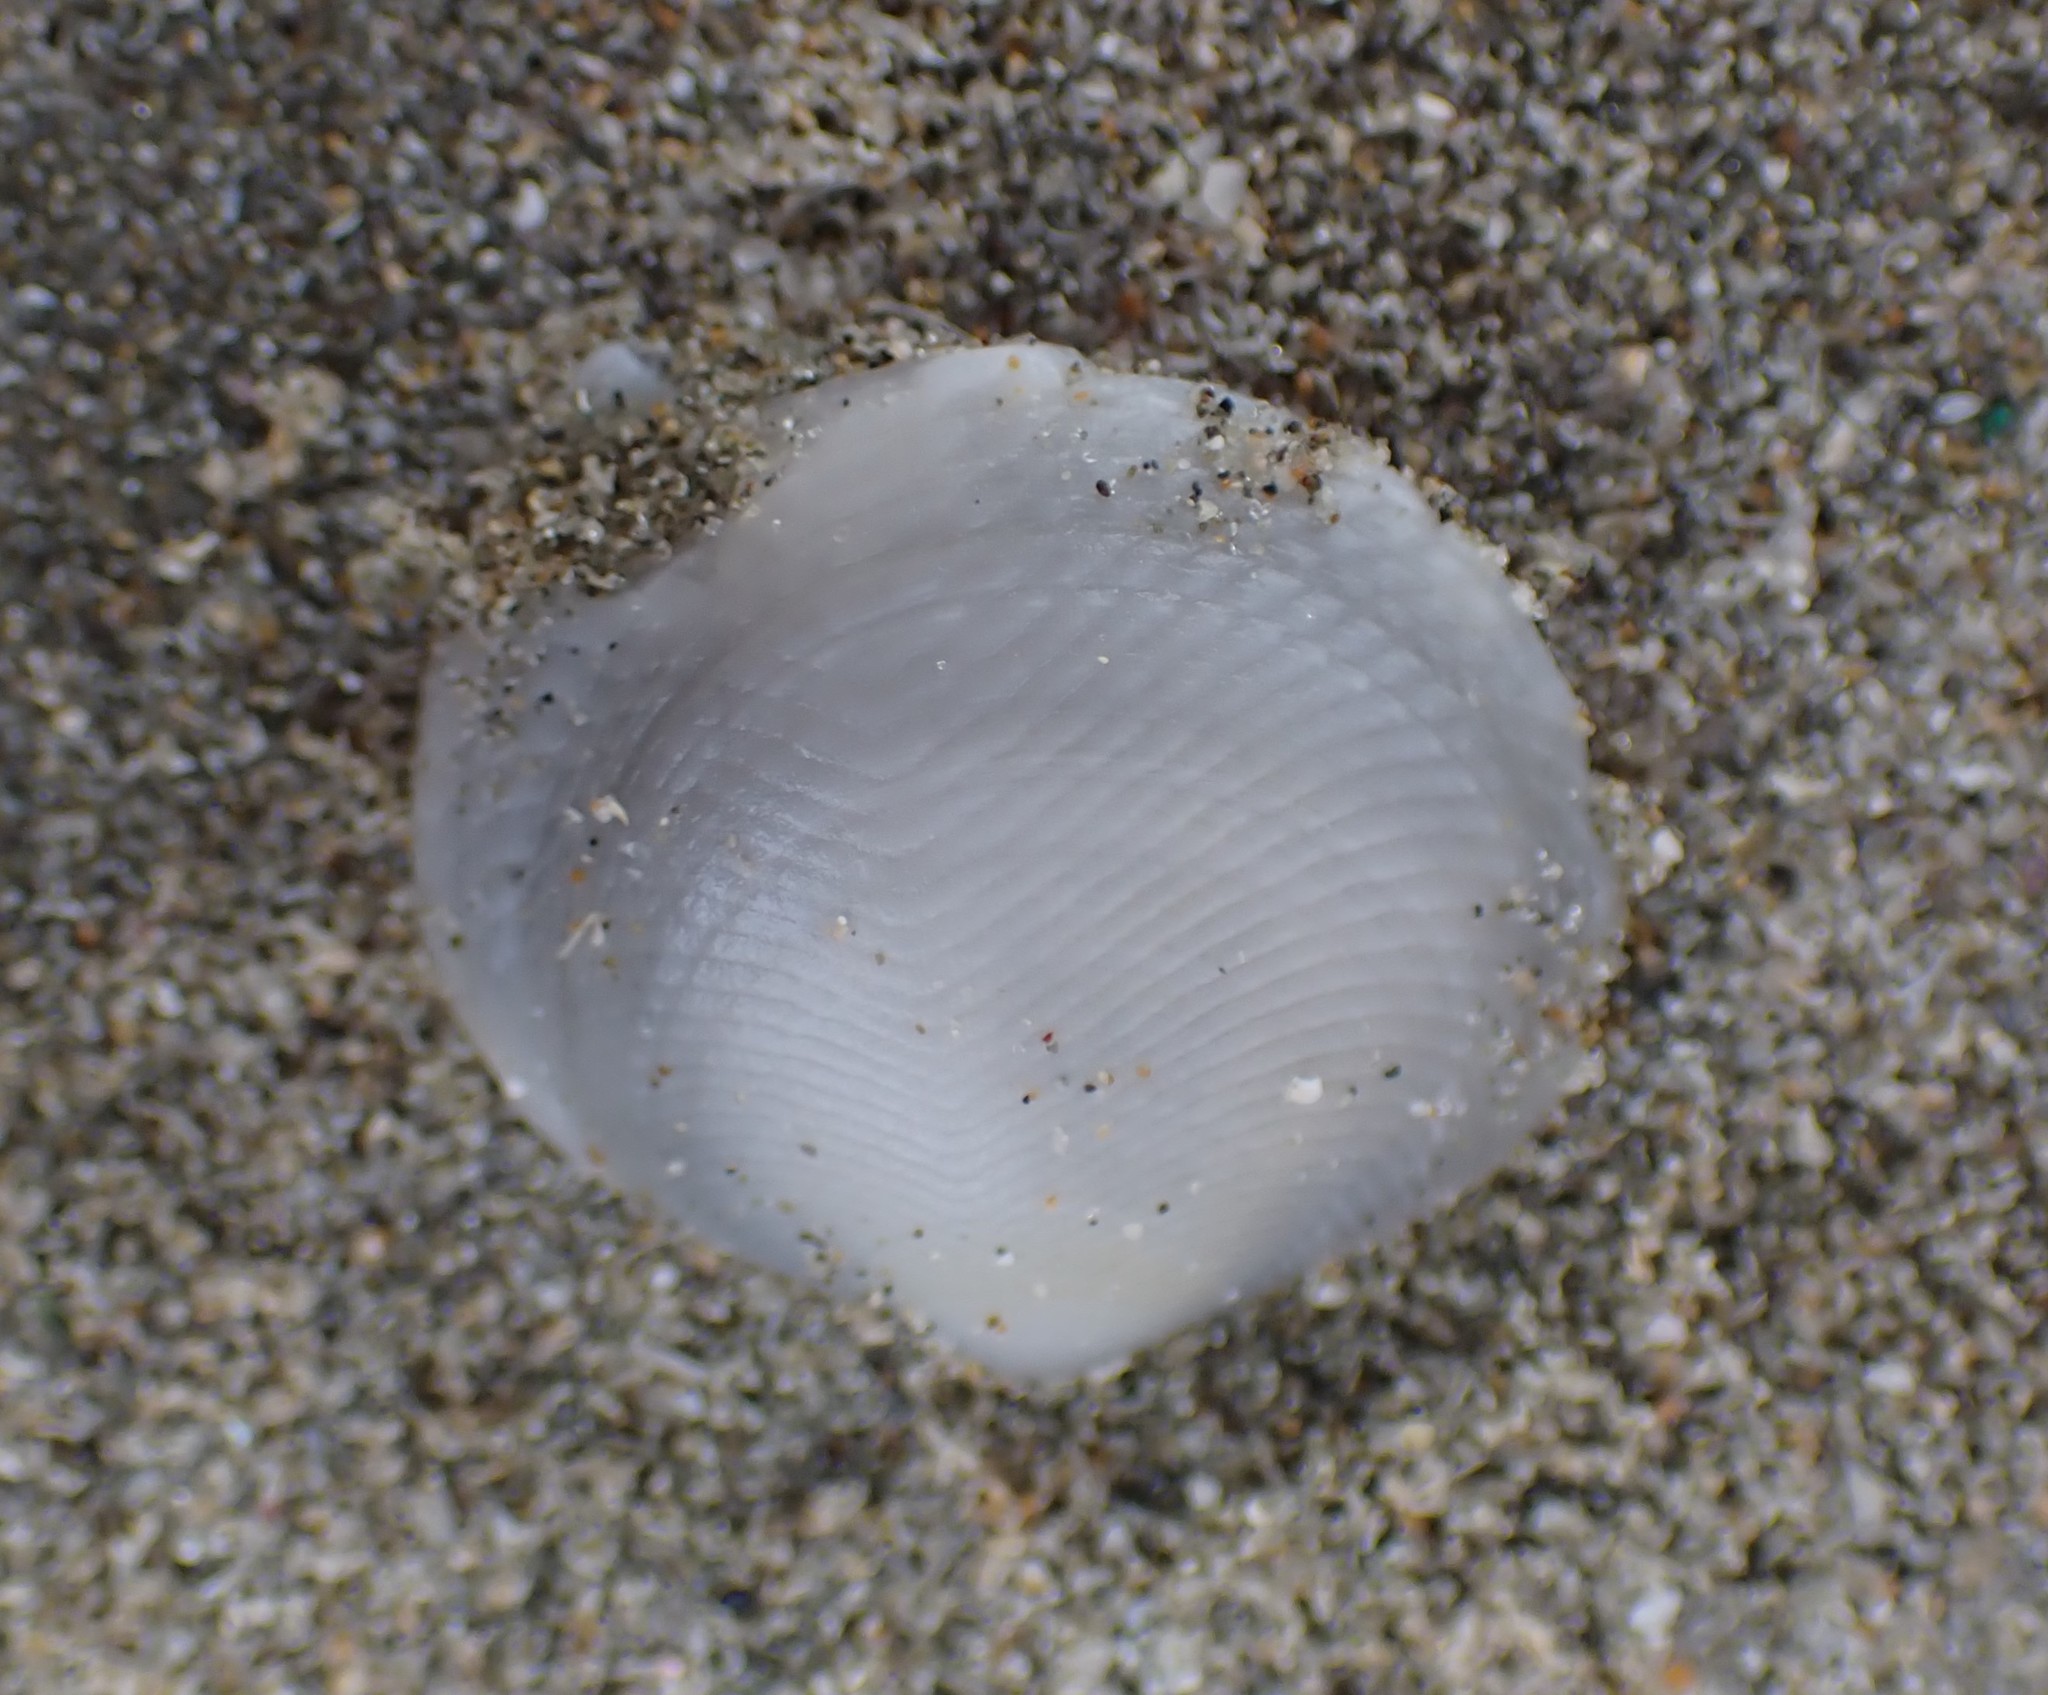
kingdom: Animalia
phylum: Mollusca
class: Bivalvia
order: Lucinida
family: Lucinidae
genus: Divalucina
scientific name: Divalucina cumingi
